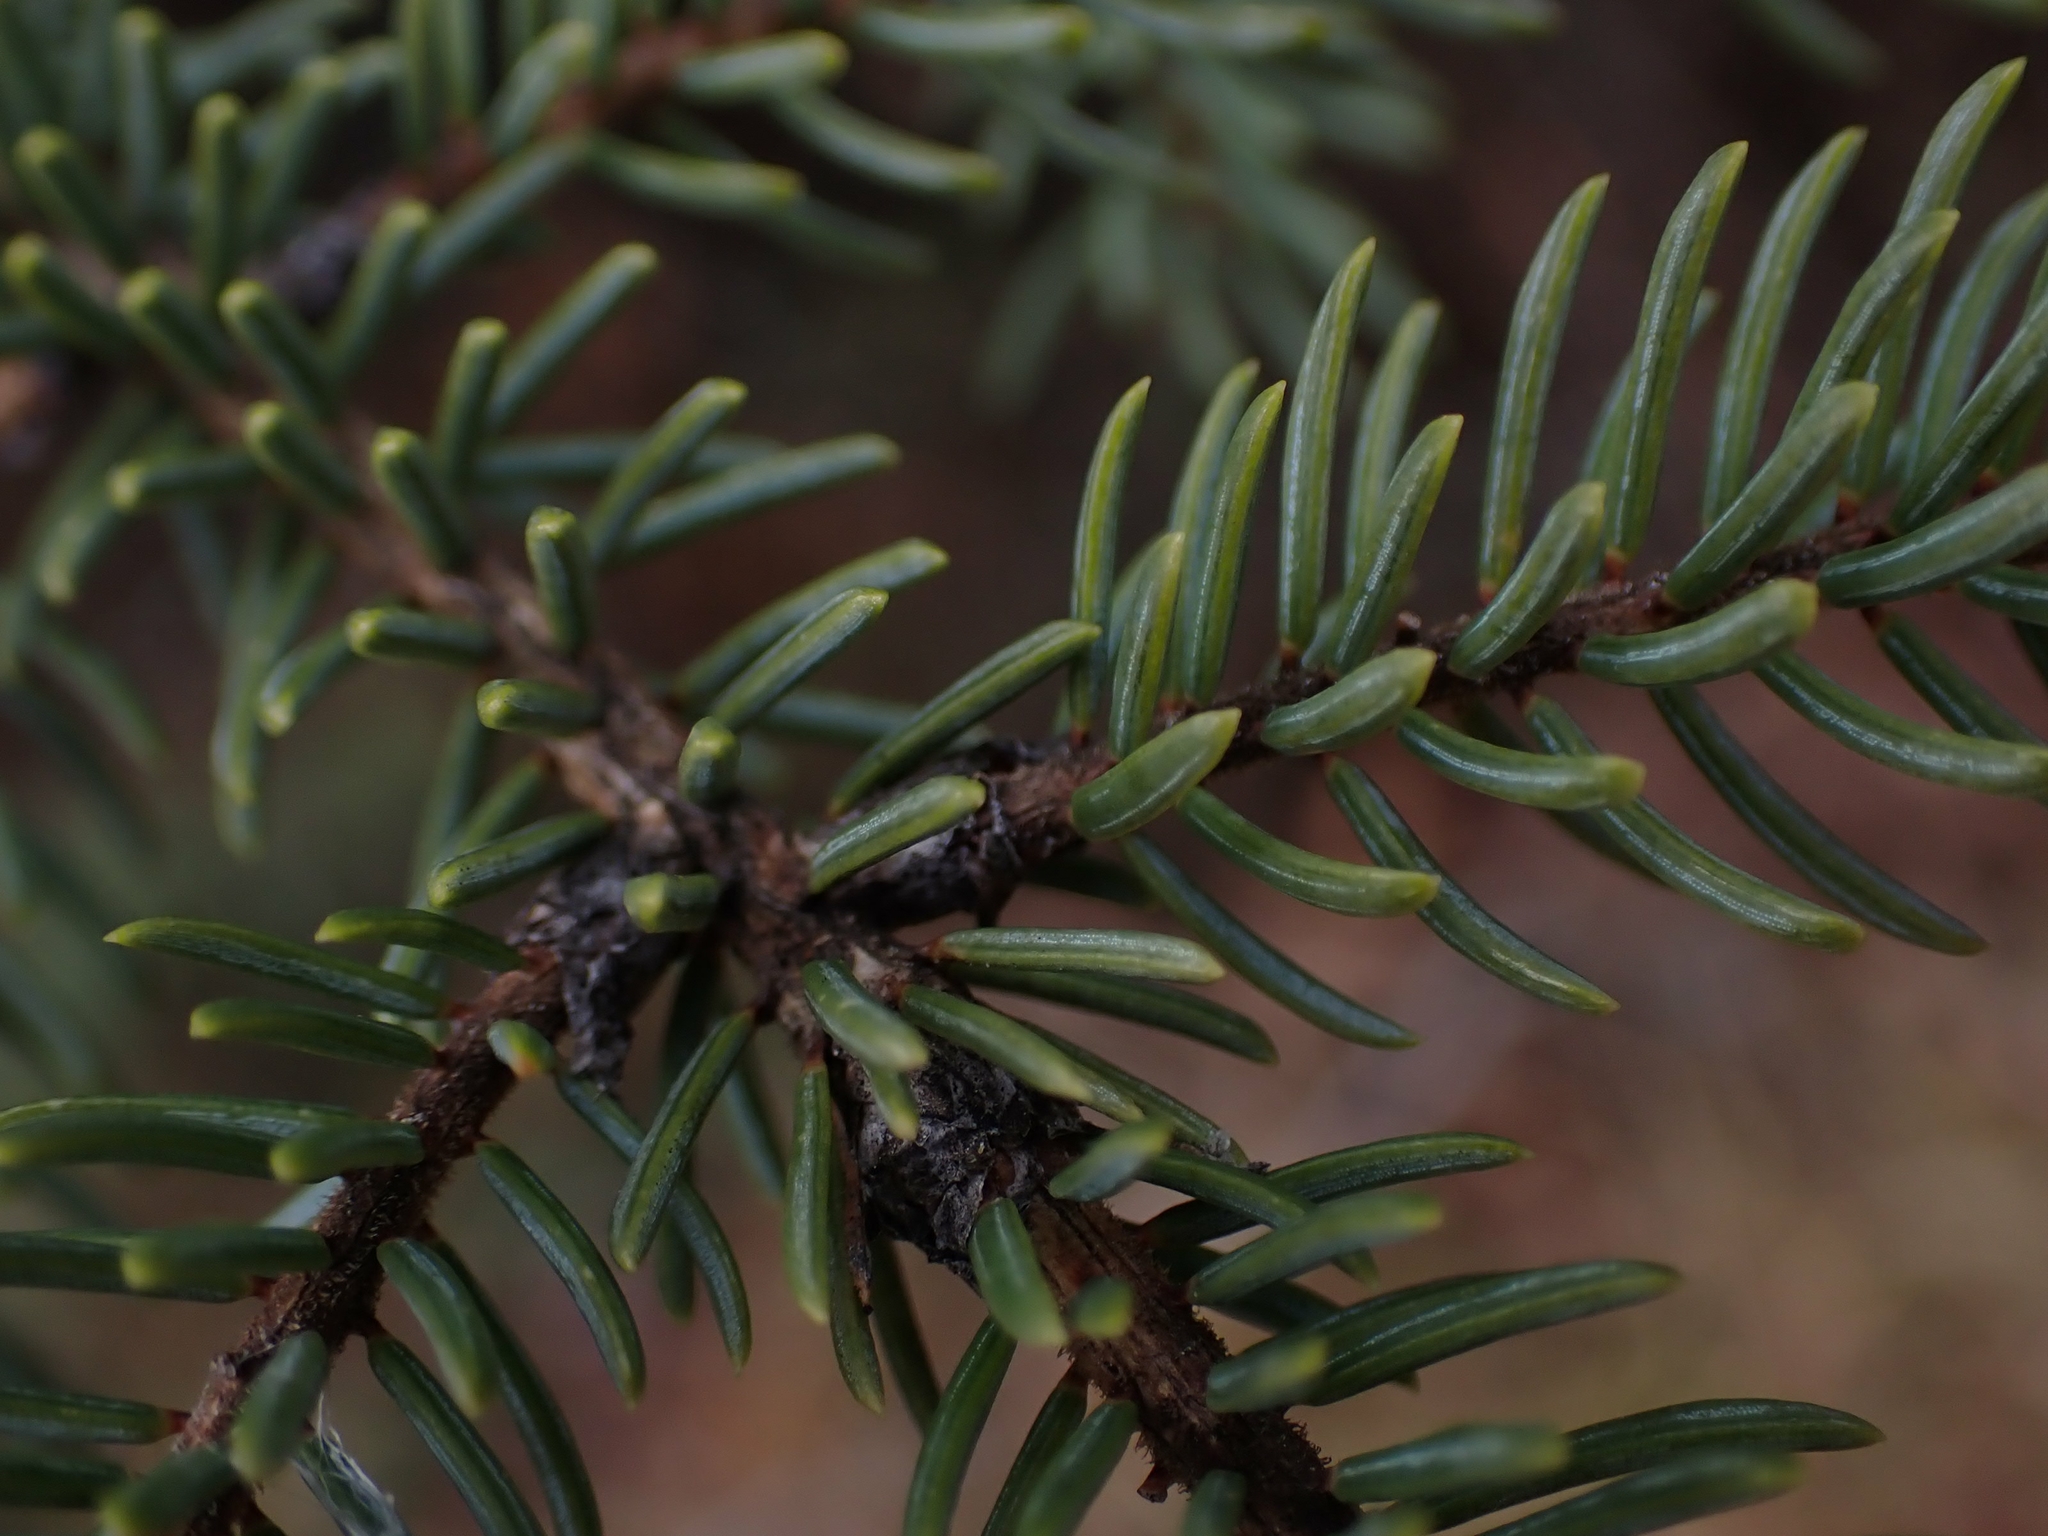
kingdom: Plantae
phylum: Tracheophyta
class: Pinopsida
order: Pinales
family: Pinaceae
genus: Picea
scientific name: Picea mariana
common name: Black spruce
